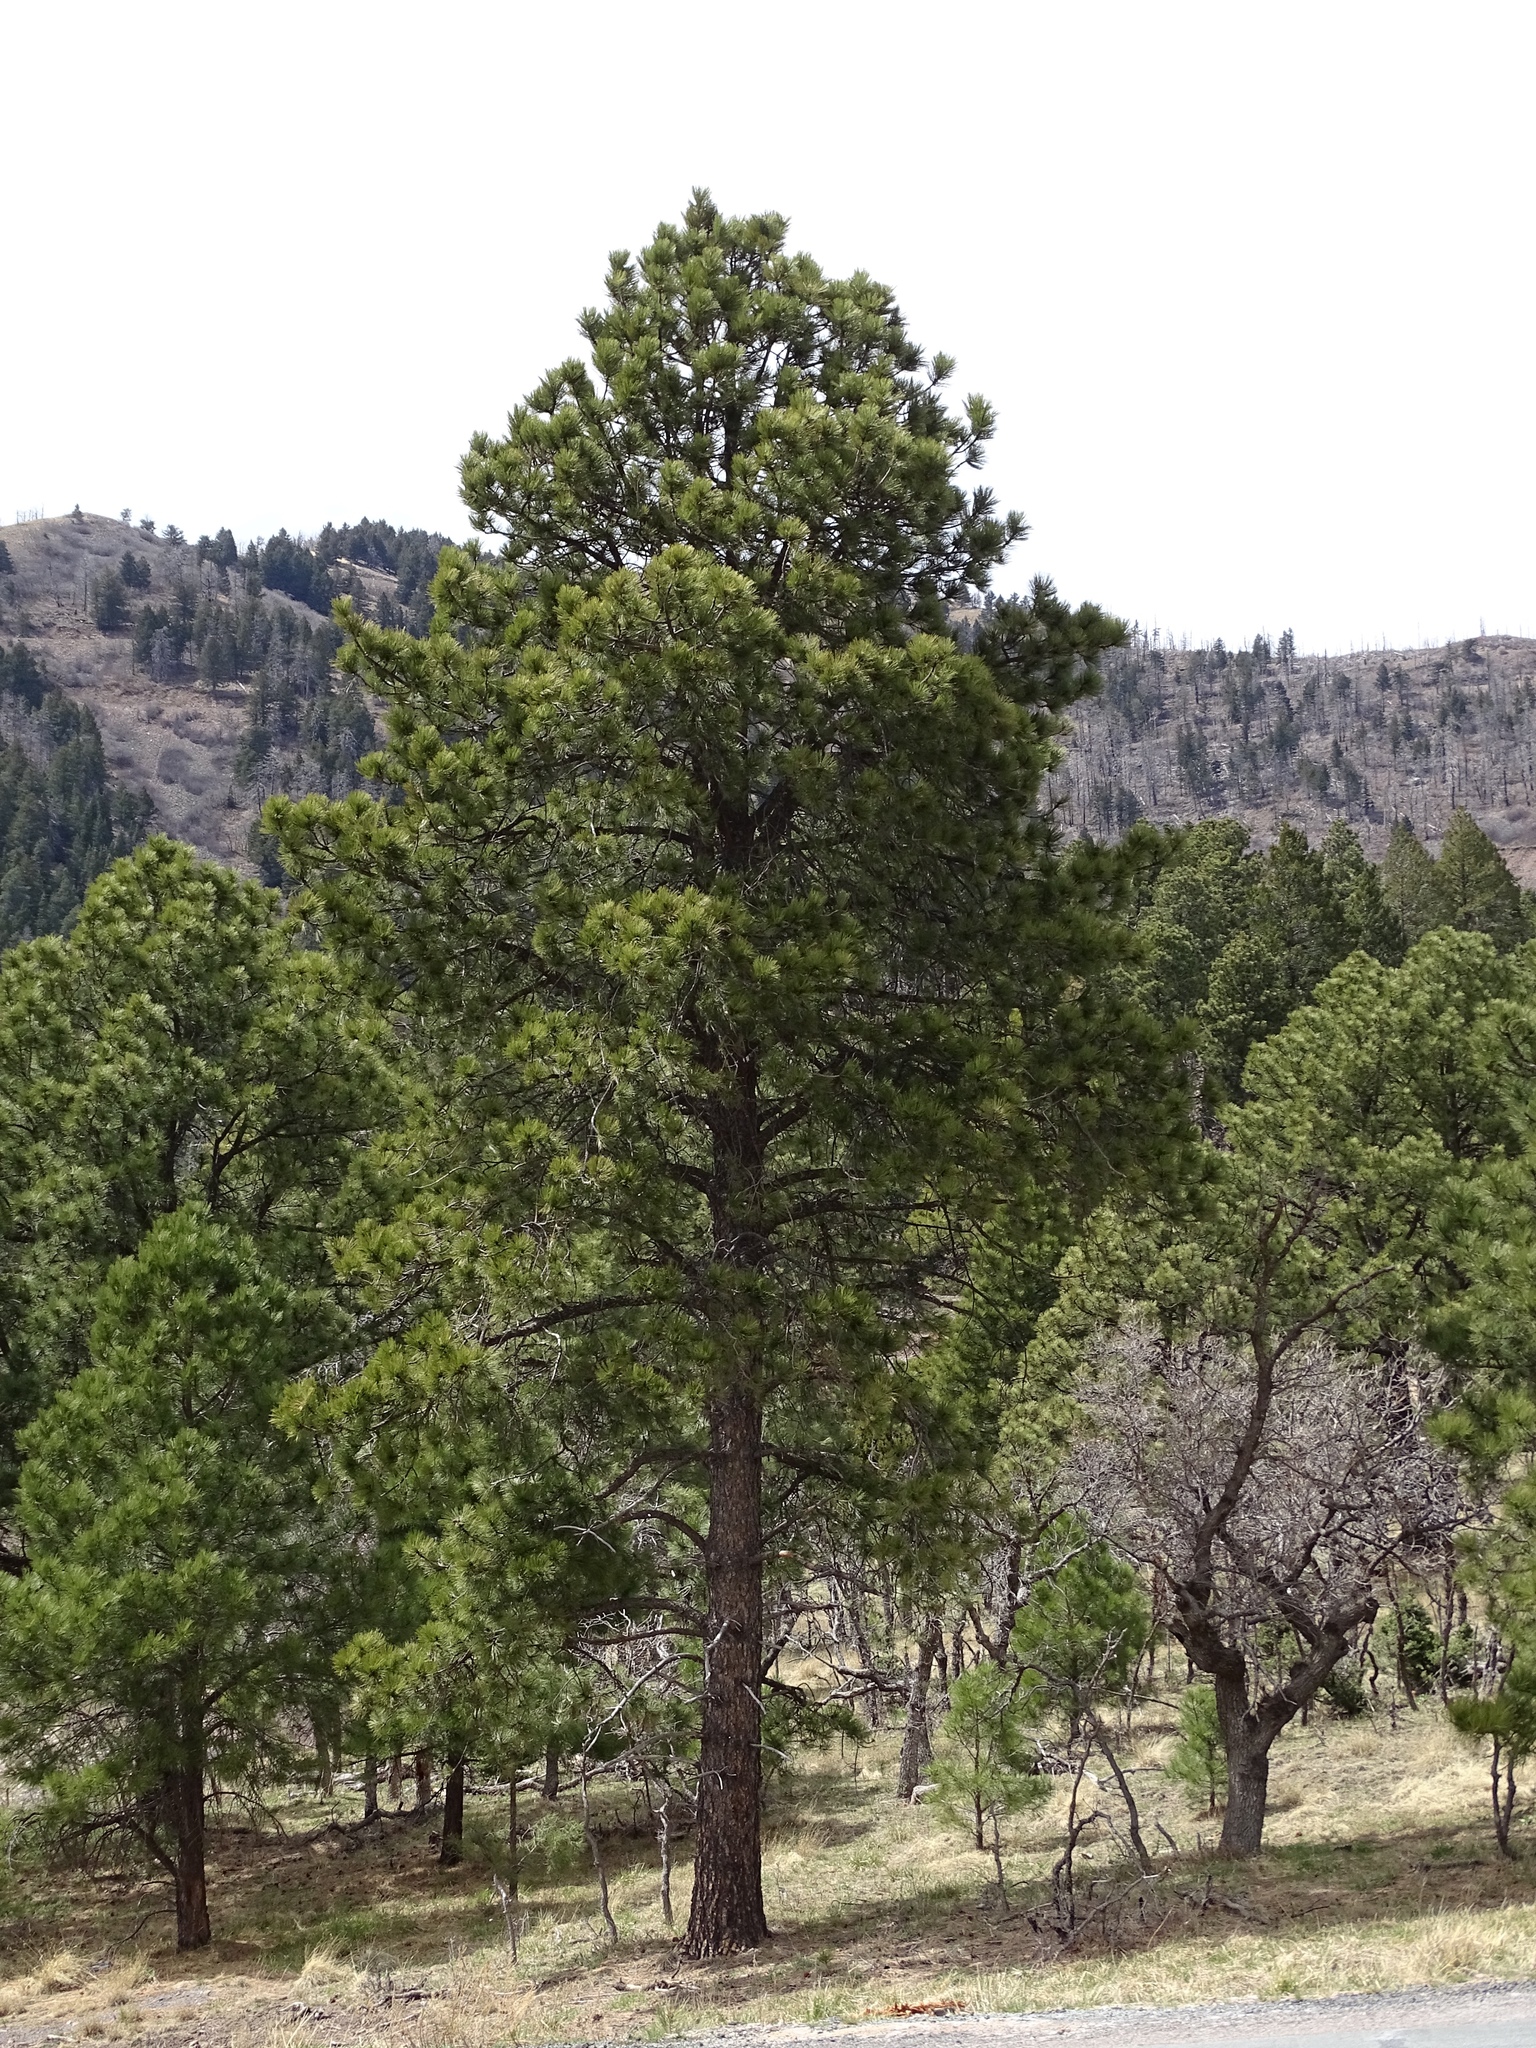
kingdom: Plantae
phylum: Tracheophyta
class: Pinopsida
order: Pinales
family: Pinaceae
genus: Pinus
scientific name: Pinus ponderosa
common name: Western yellow-pine
